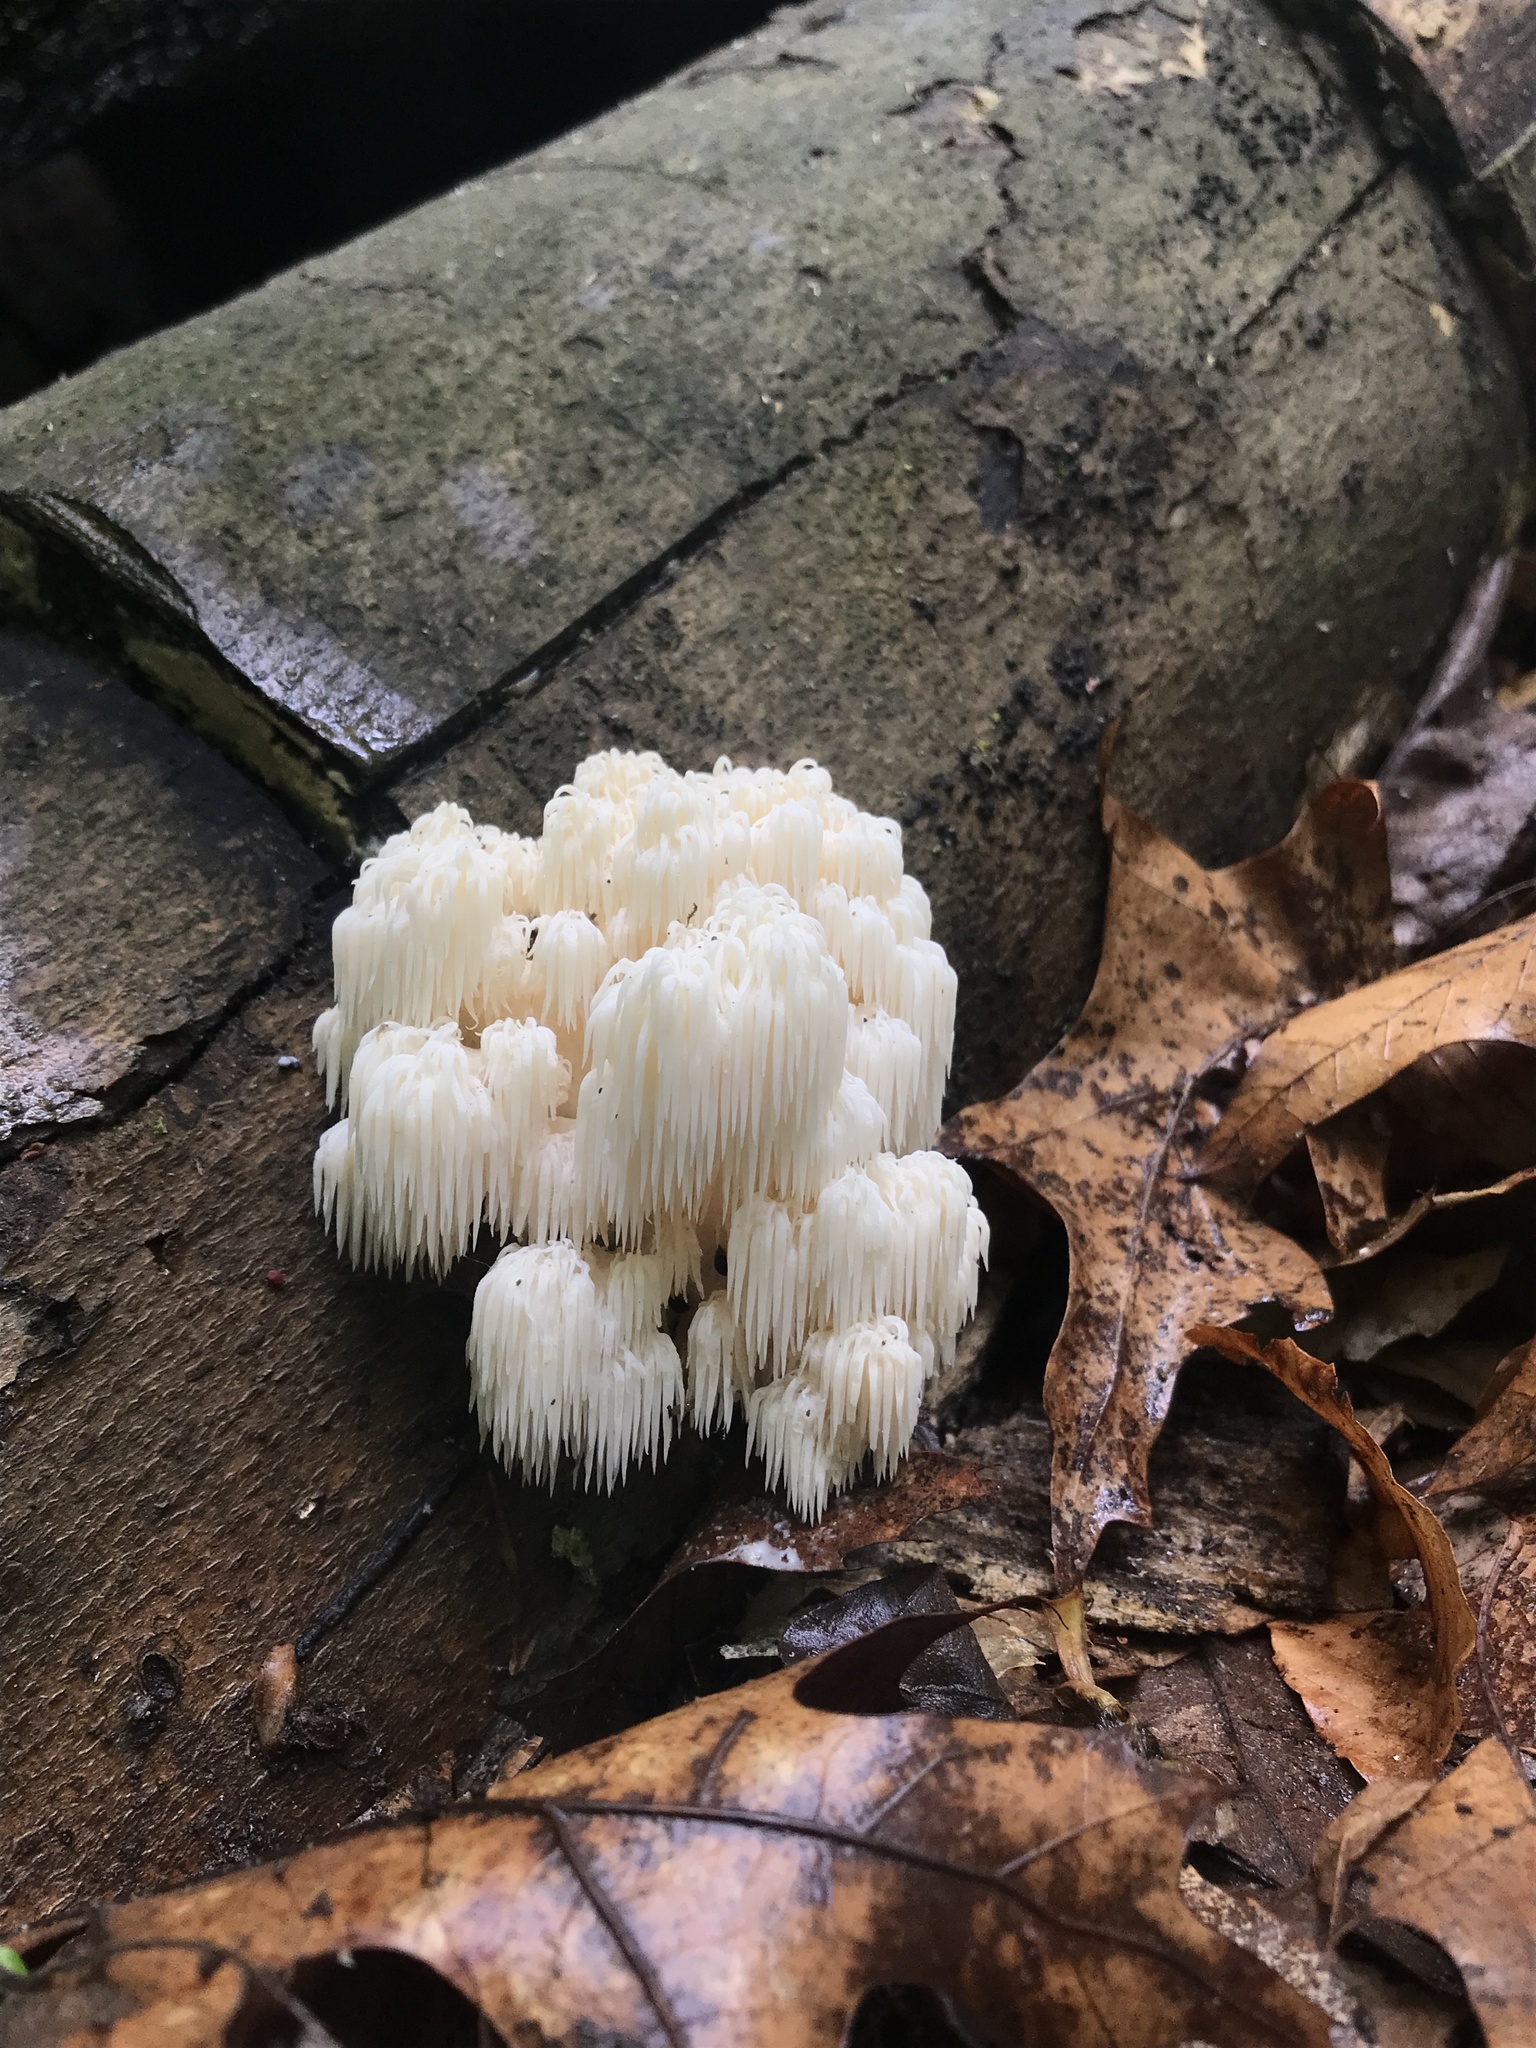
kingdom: Fungi
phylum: Basidiomycota
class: Agaricomycetes
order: Russulales
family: Hericiaceae
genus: Hericium
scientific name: Hericium americanum
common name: Bear's head tooth
